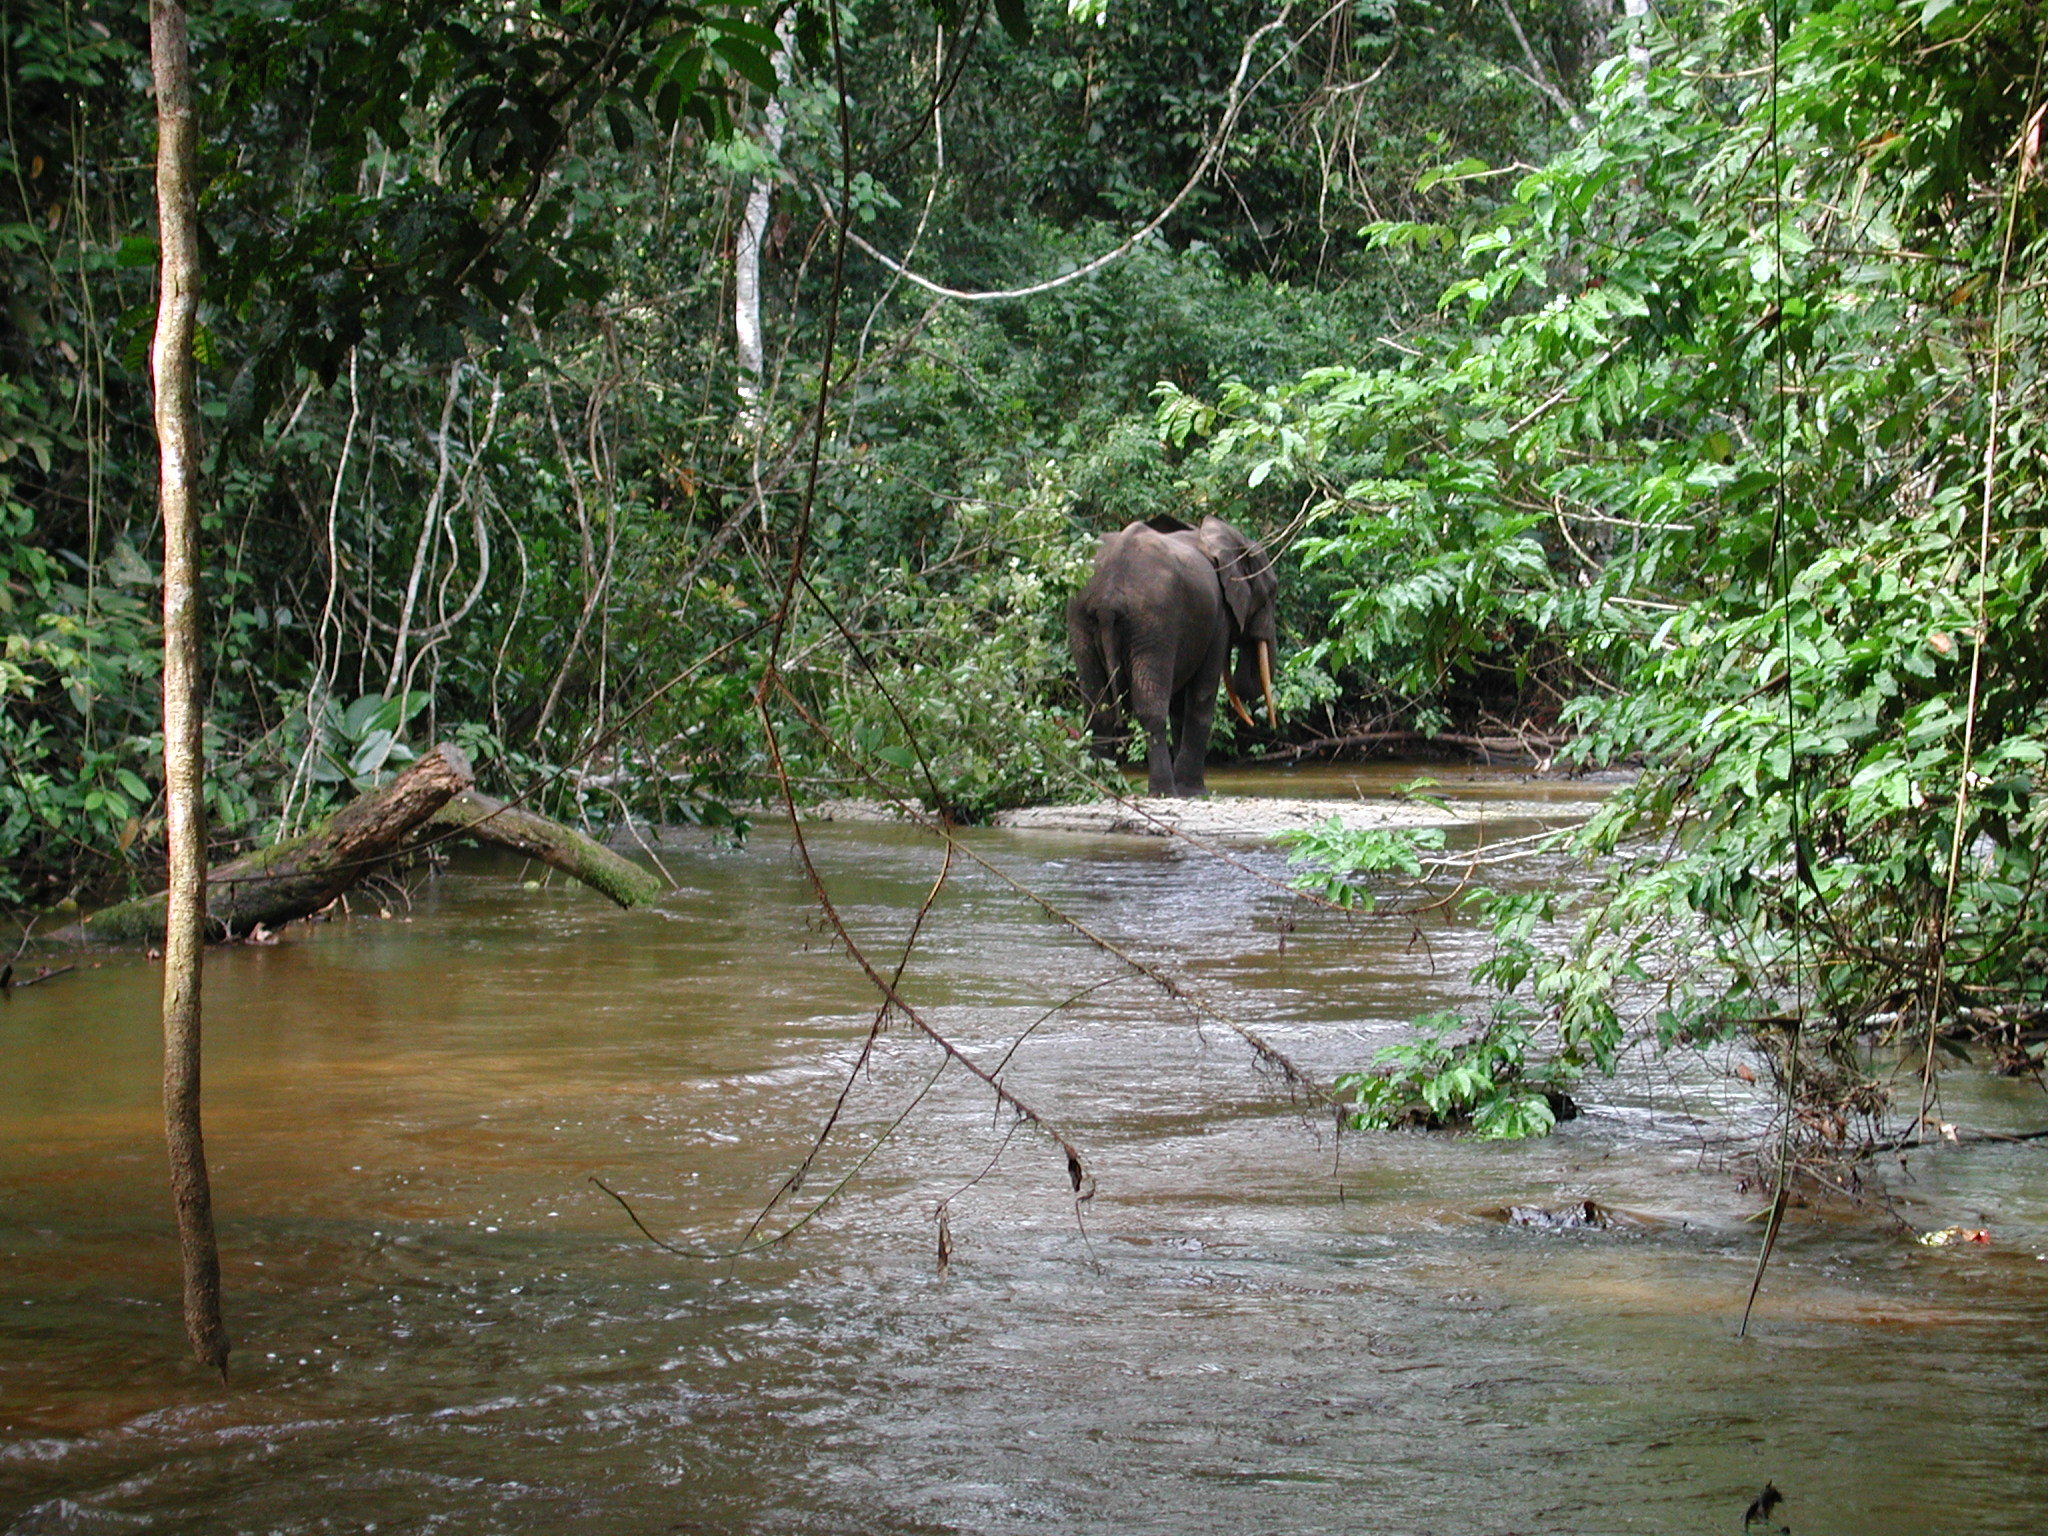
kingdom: Animalia
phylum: Chordata
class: Mammalia
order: Proboscidea
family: Elephantidae
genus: Loxodonta
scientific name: Loxodonta cyclotis
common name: African forest elephant
